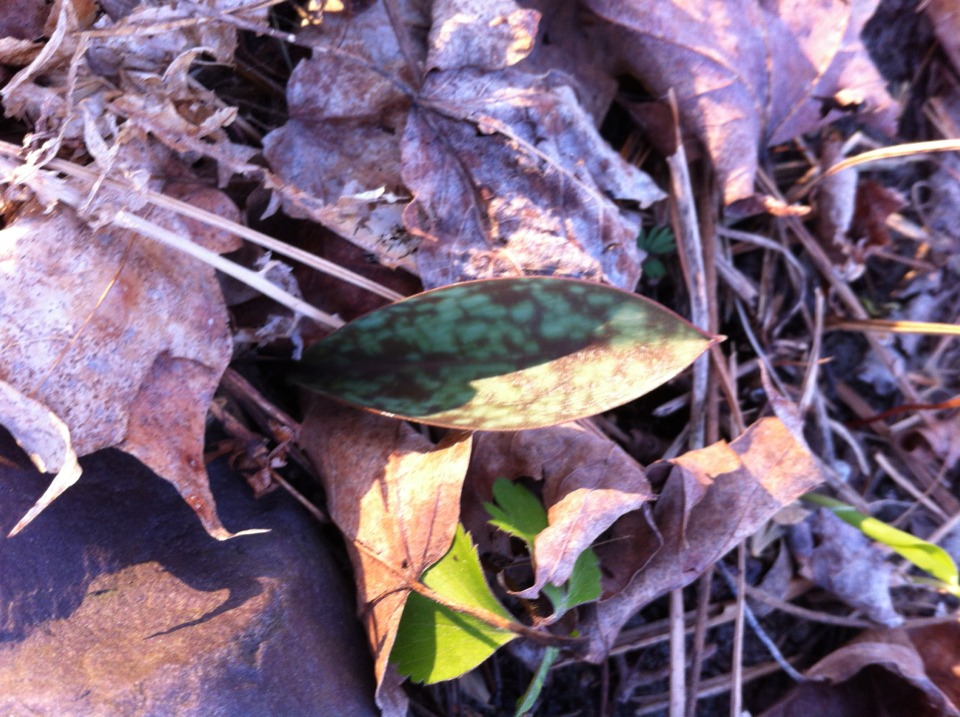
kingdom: Plantae
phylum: Tracheophyta
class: Liliopsida
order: Liliales
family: Liliaceae
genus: Erythronium
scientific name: Erythronium americanum
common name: Yellow adder's-tongue
